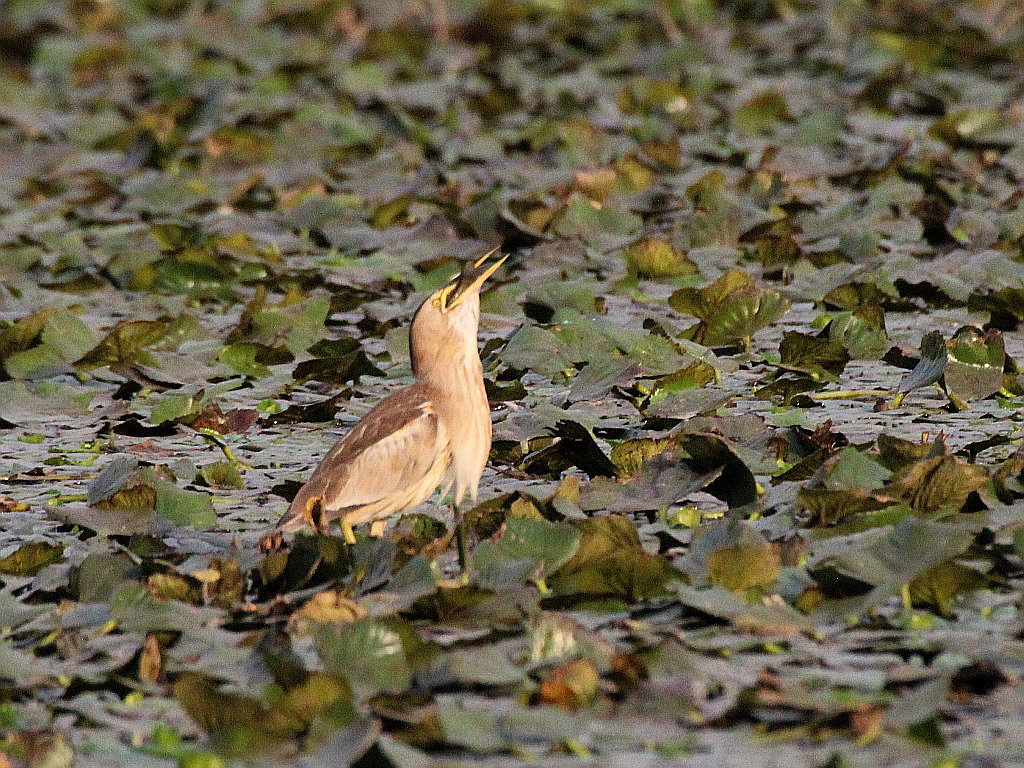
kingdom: Animalia
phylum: Chordata
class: Aves
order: Pelecaniformes
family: Ardeidae
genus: Ixobrychus
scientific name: Ixobrychus minutus
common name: Little bittern
